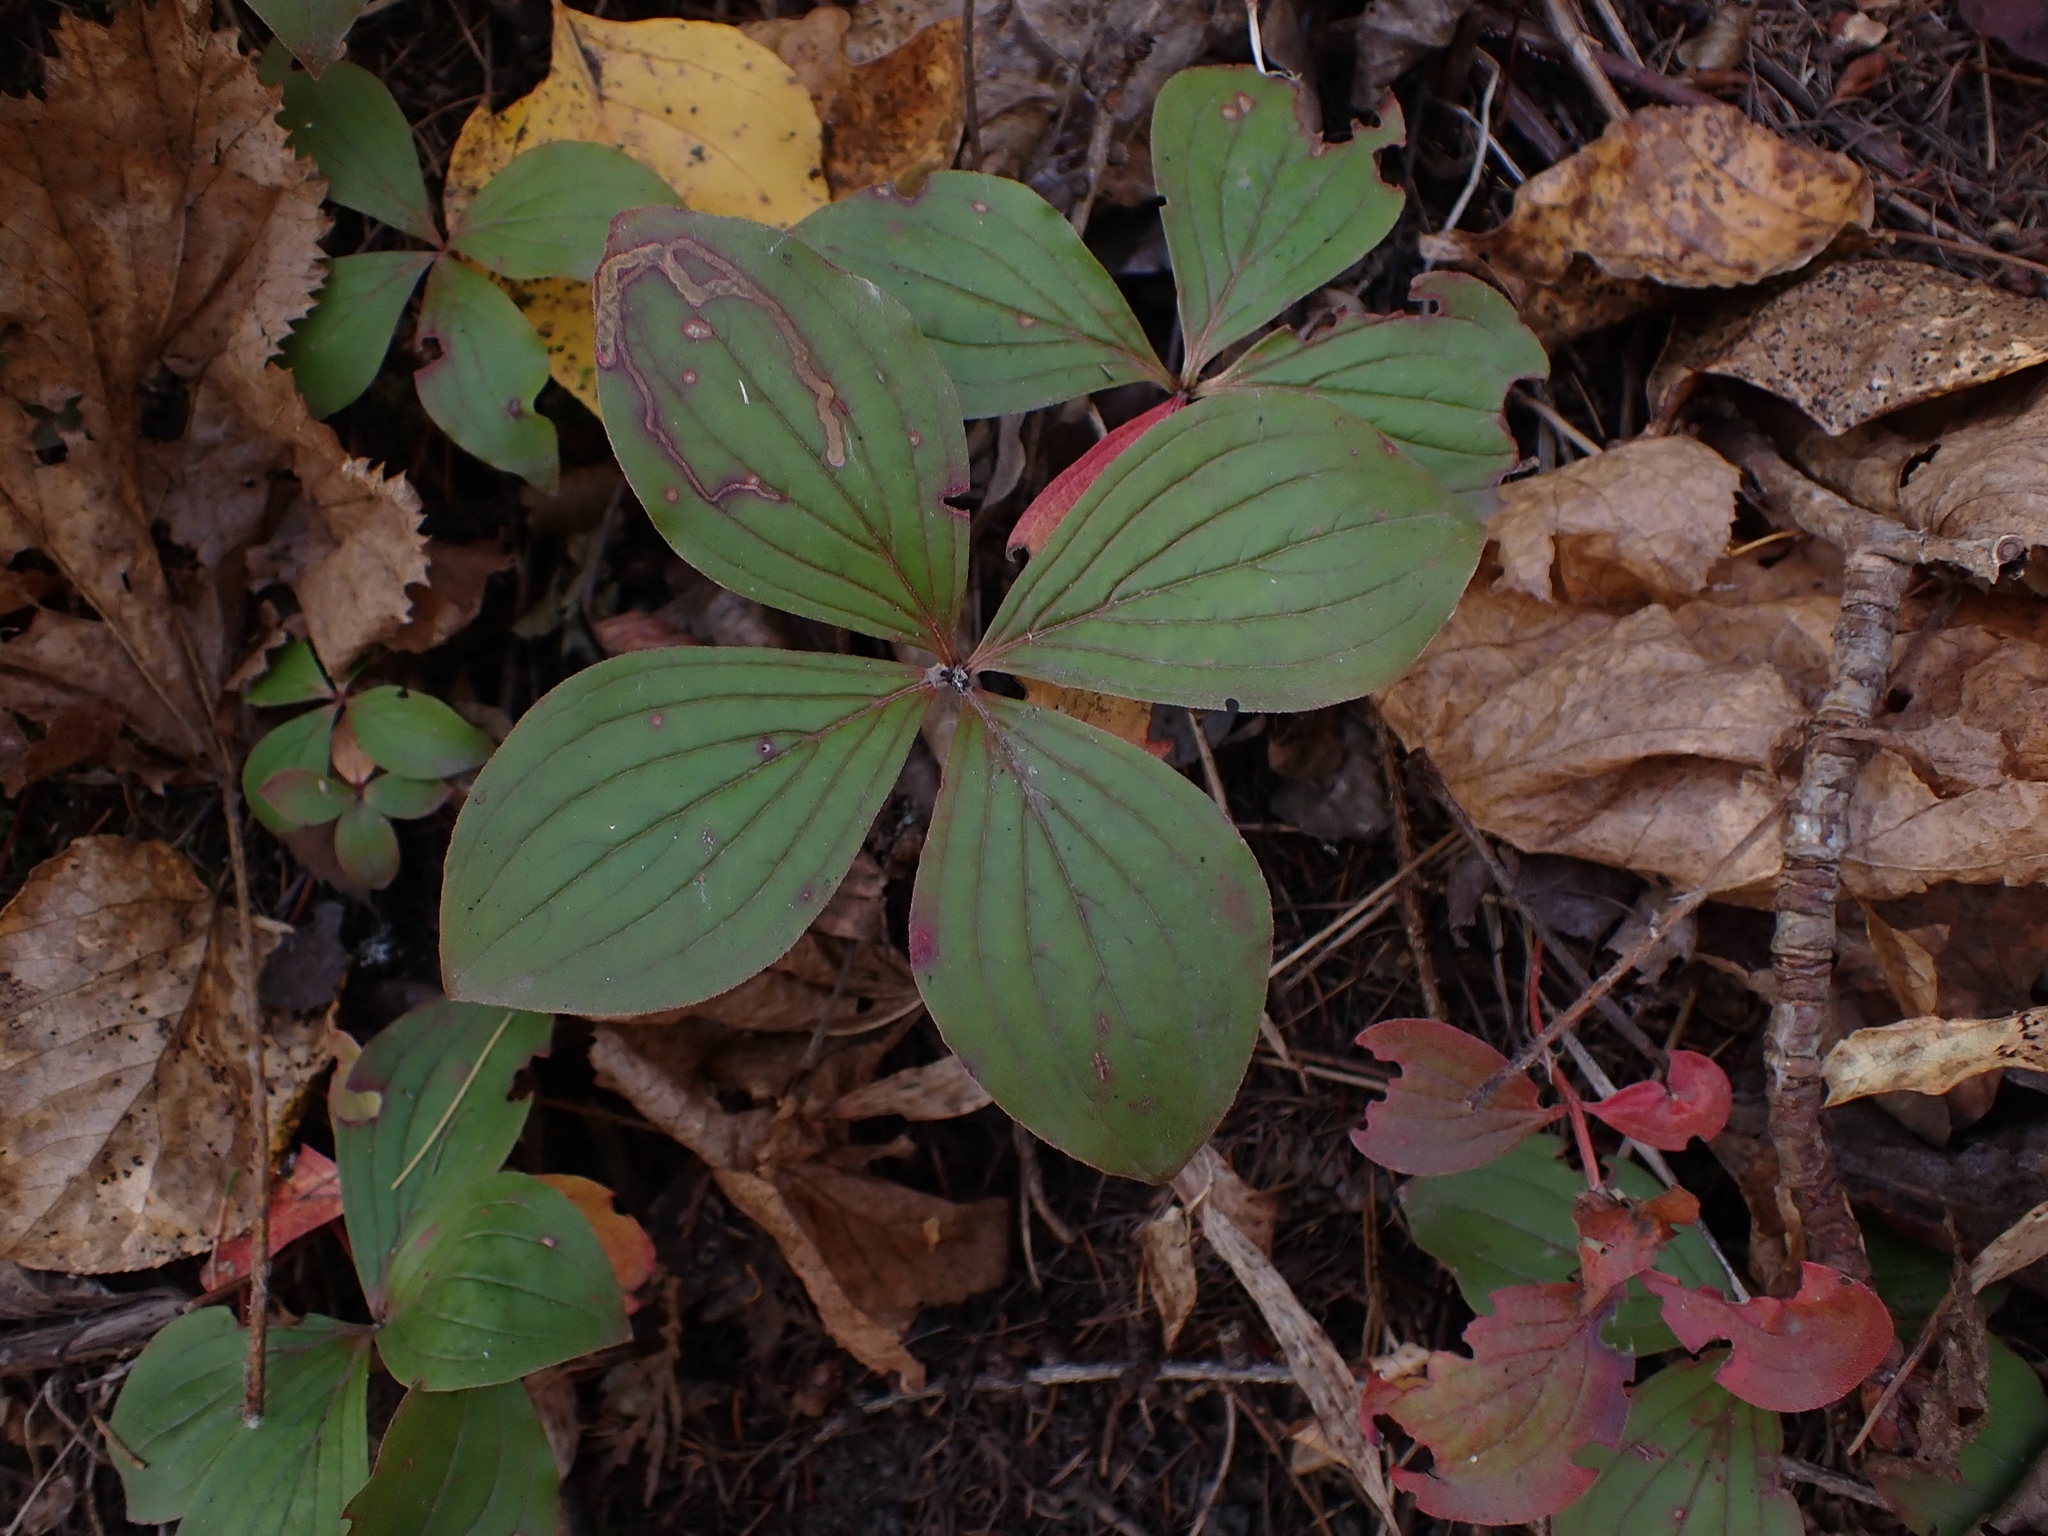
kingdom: Plantae
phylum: Tracheophyta
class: Magnoliopsida
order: Cornales
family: Cornaceae
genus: Cornus
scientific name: Cornus canadensis
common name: Creeping dogwood
